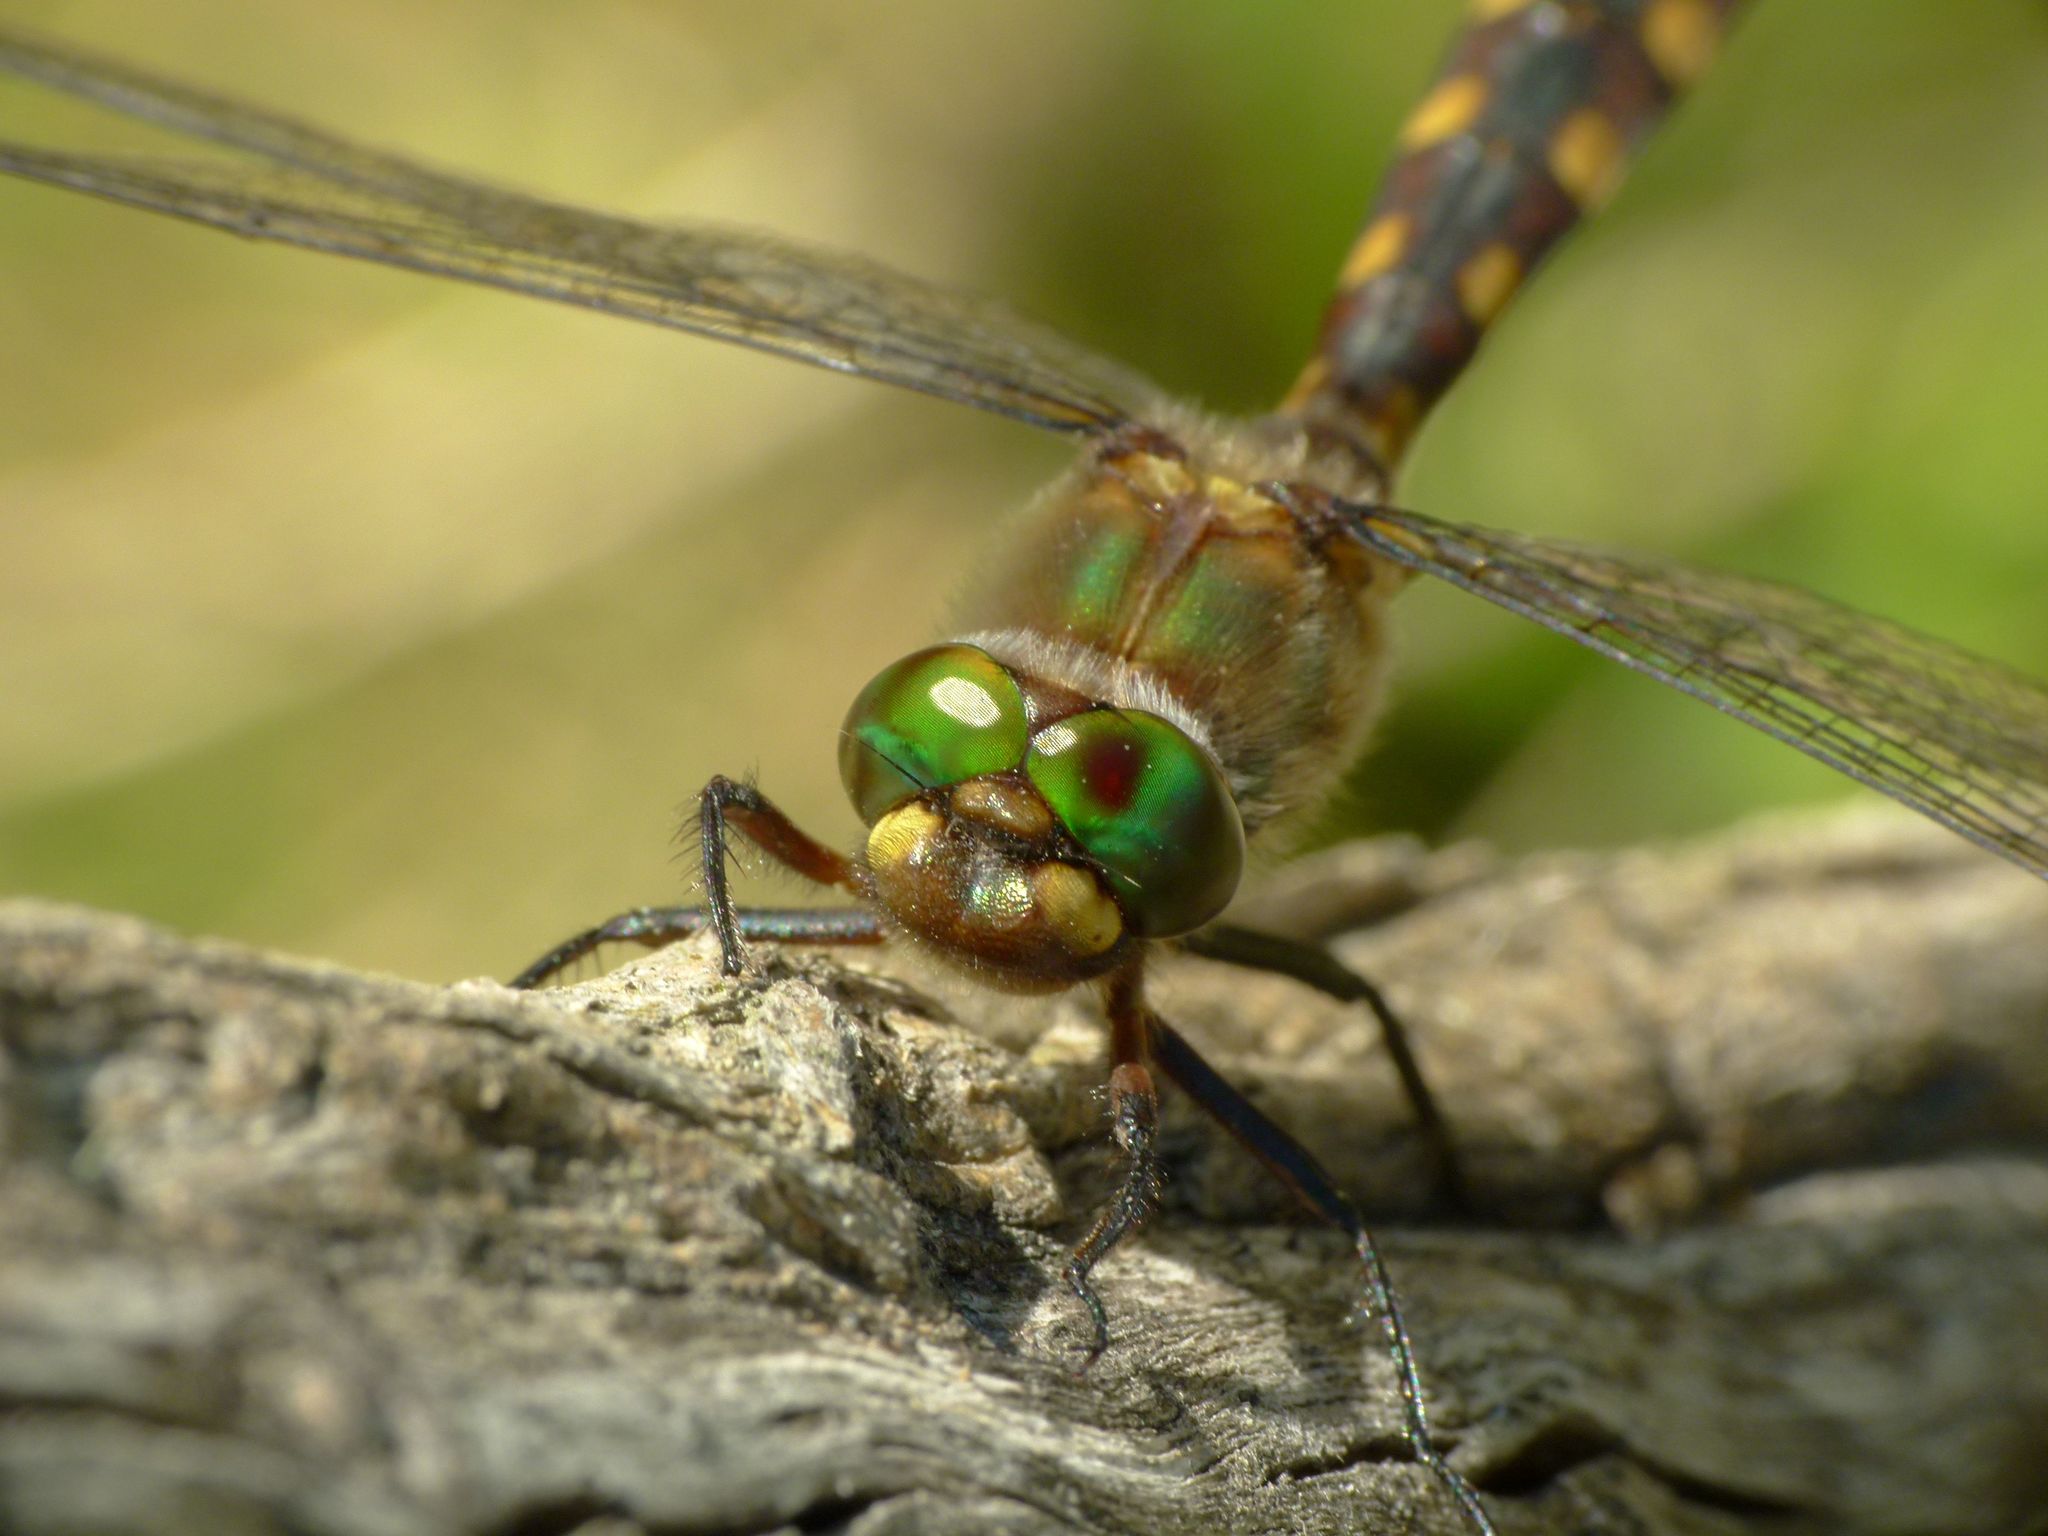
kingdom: Animalia
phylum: Arthropoda
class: Insecta
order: Odonata
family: Corduliidae
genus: Procordulia
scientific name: Procordulia grayi
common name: Yellow spotted dragonfly
